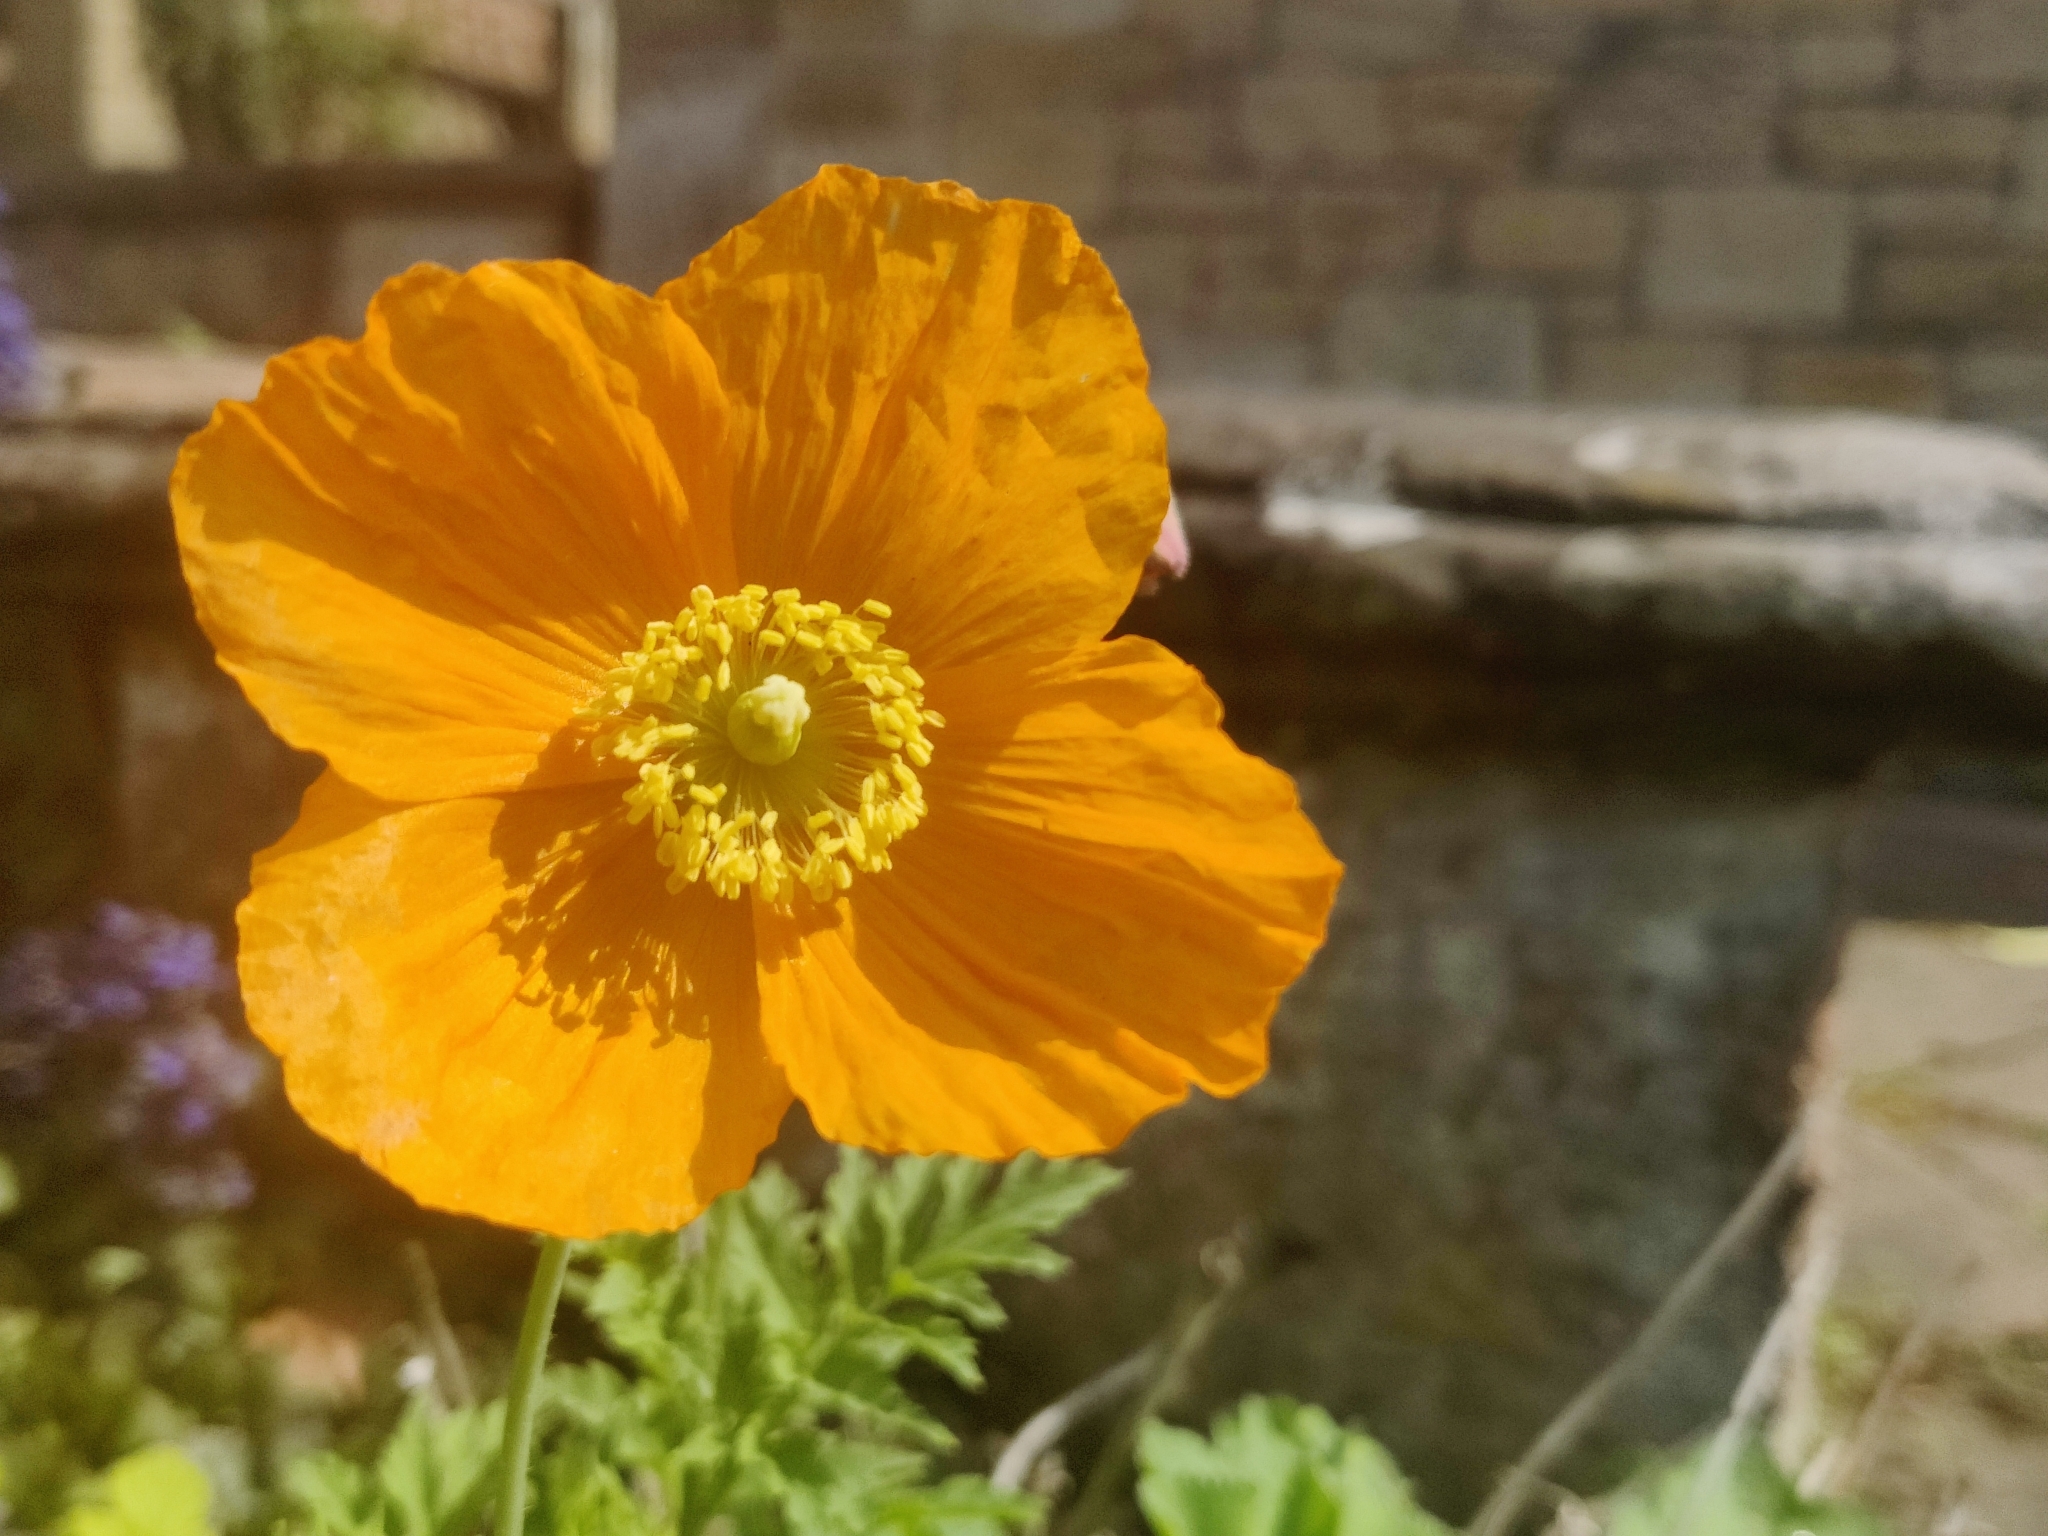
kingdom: Plantae
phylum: Tracheophyta
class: Magnoliopsida
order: Ranunculales
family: Papaveraceae
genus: Papaver
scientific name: Papaver cambricum
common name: Poppy
